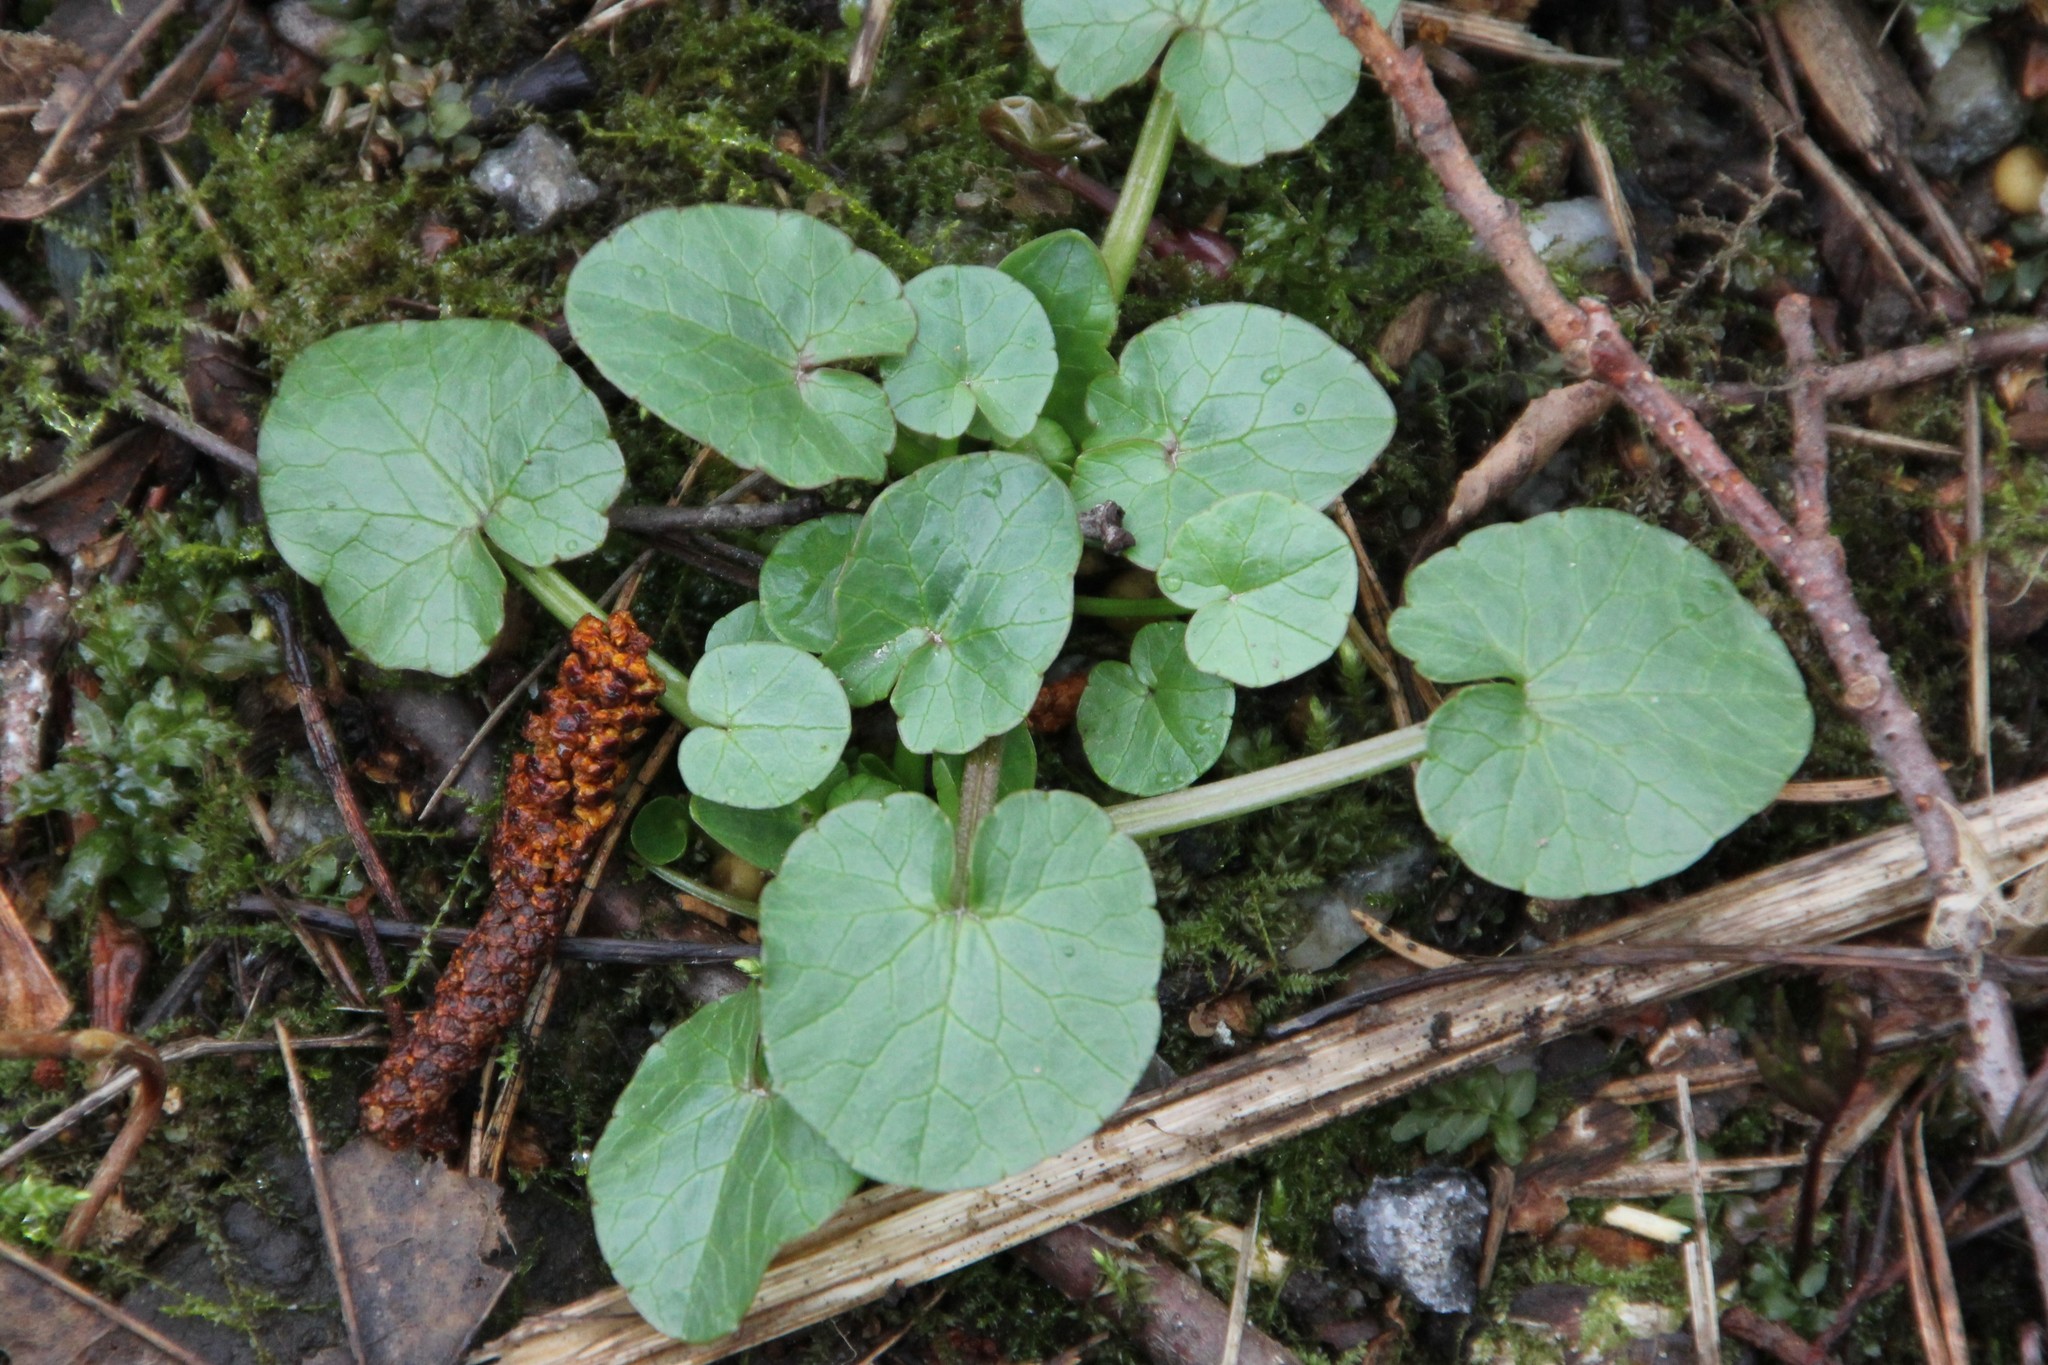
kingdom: Plantae
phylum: Tracheophyta
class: Magnoliopsida
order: Ranunculales
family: Ranunculaceae
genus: Ficaria
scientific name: Ficaria verna
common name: Lesser celandine
